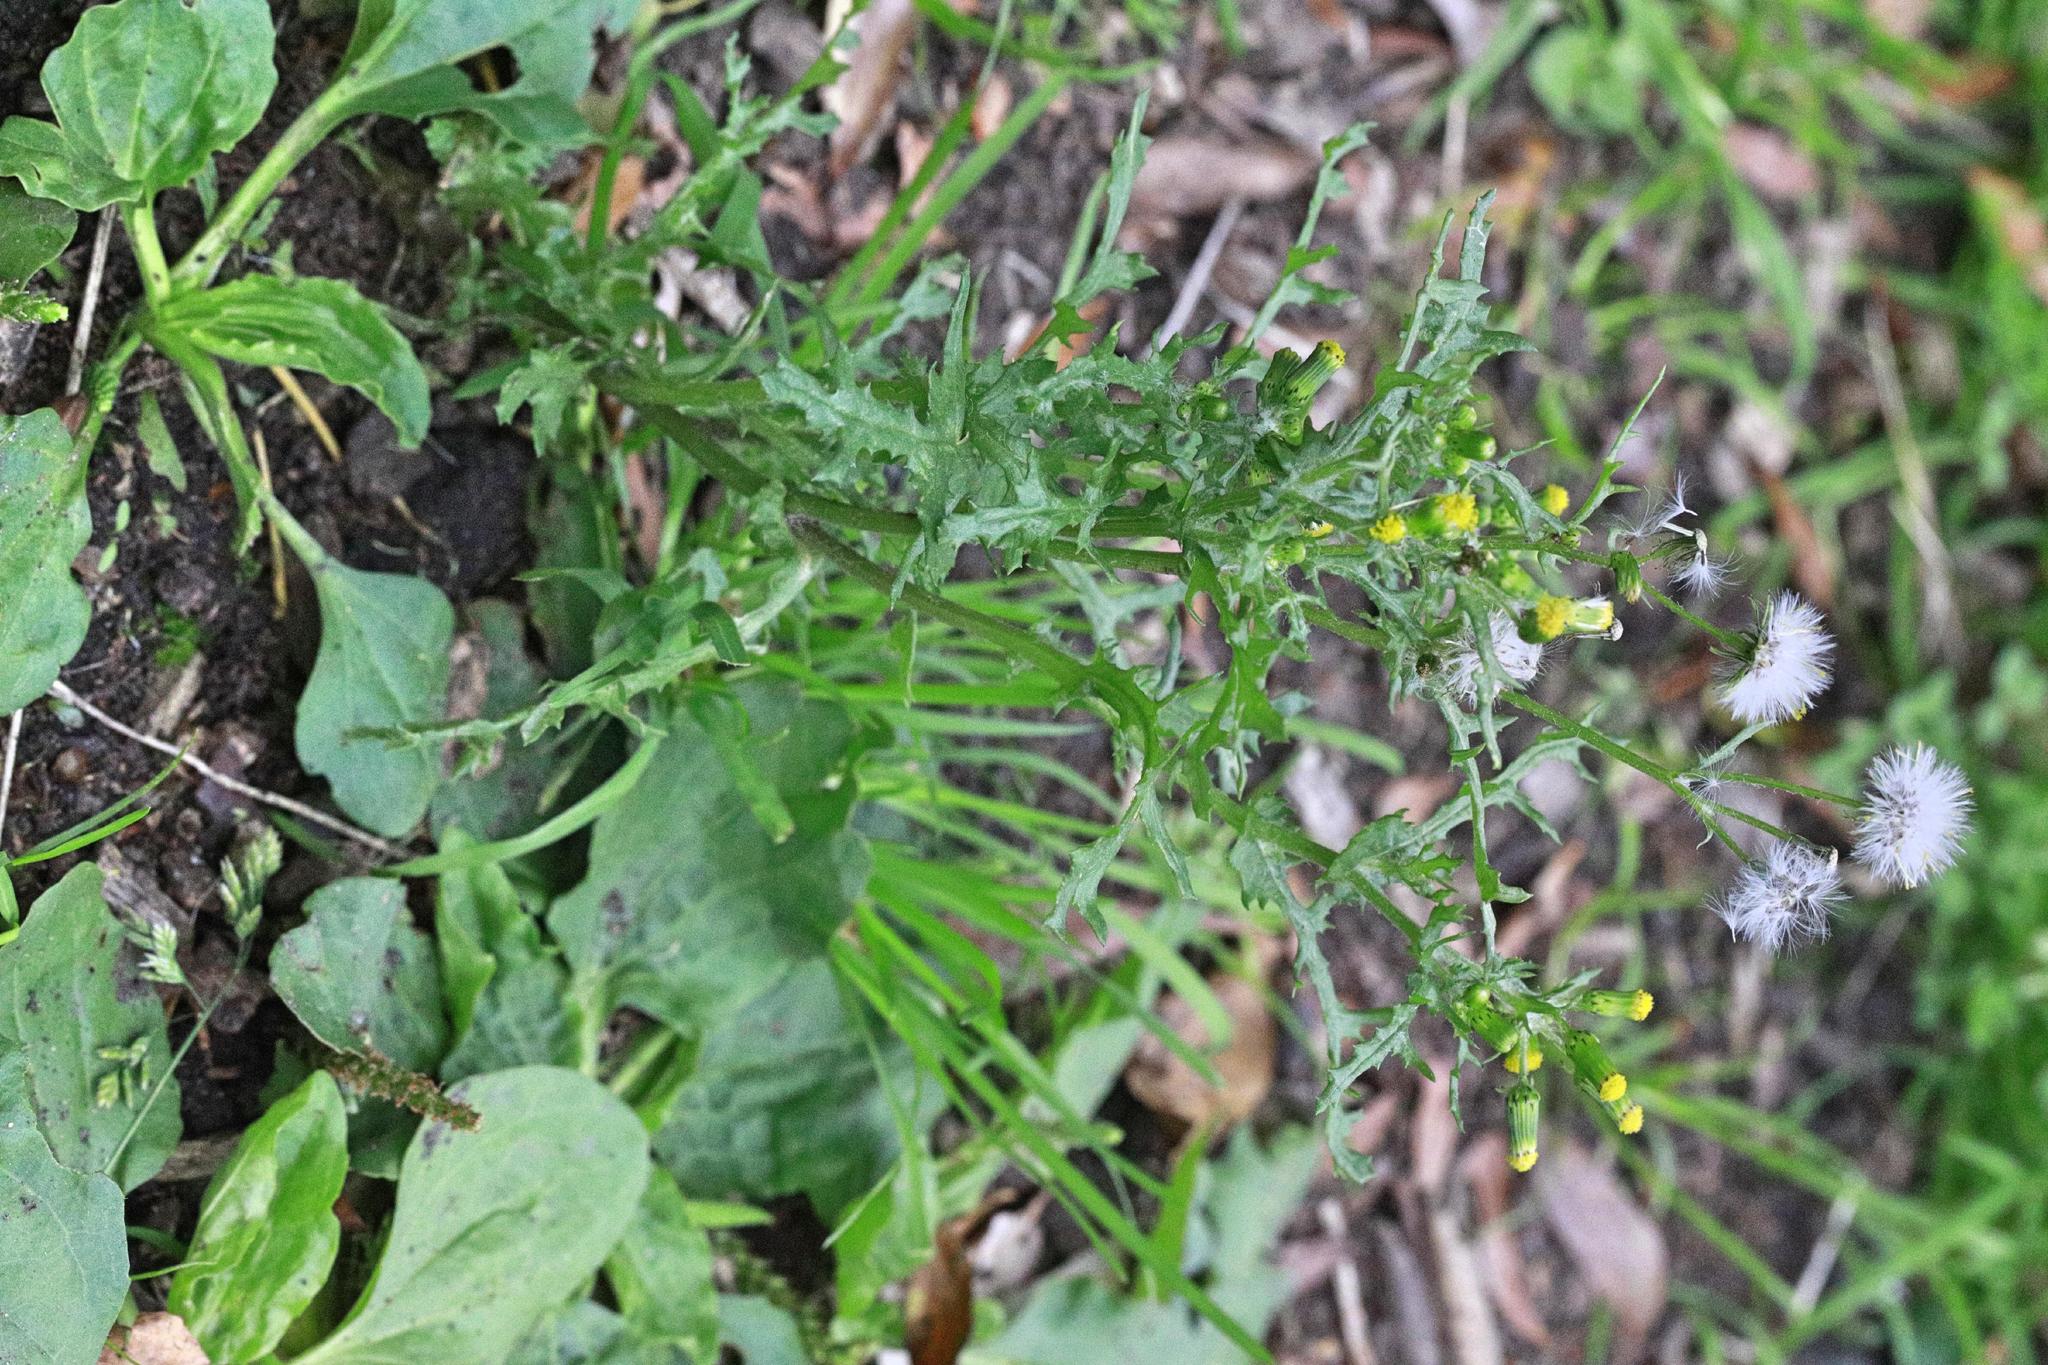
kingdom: Plantae
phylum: Tracheophyta
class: Magnoliopsida
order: Asterales
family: Asteraceae
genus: Senecio
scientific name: Senecio vulgaris
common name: Old-man-in-the-spring
